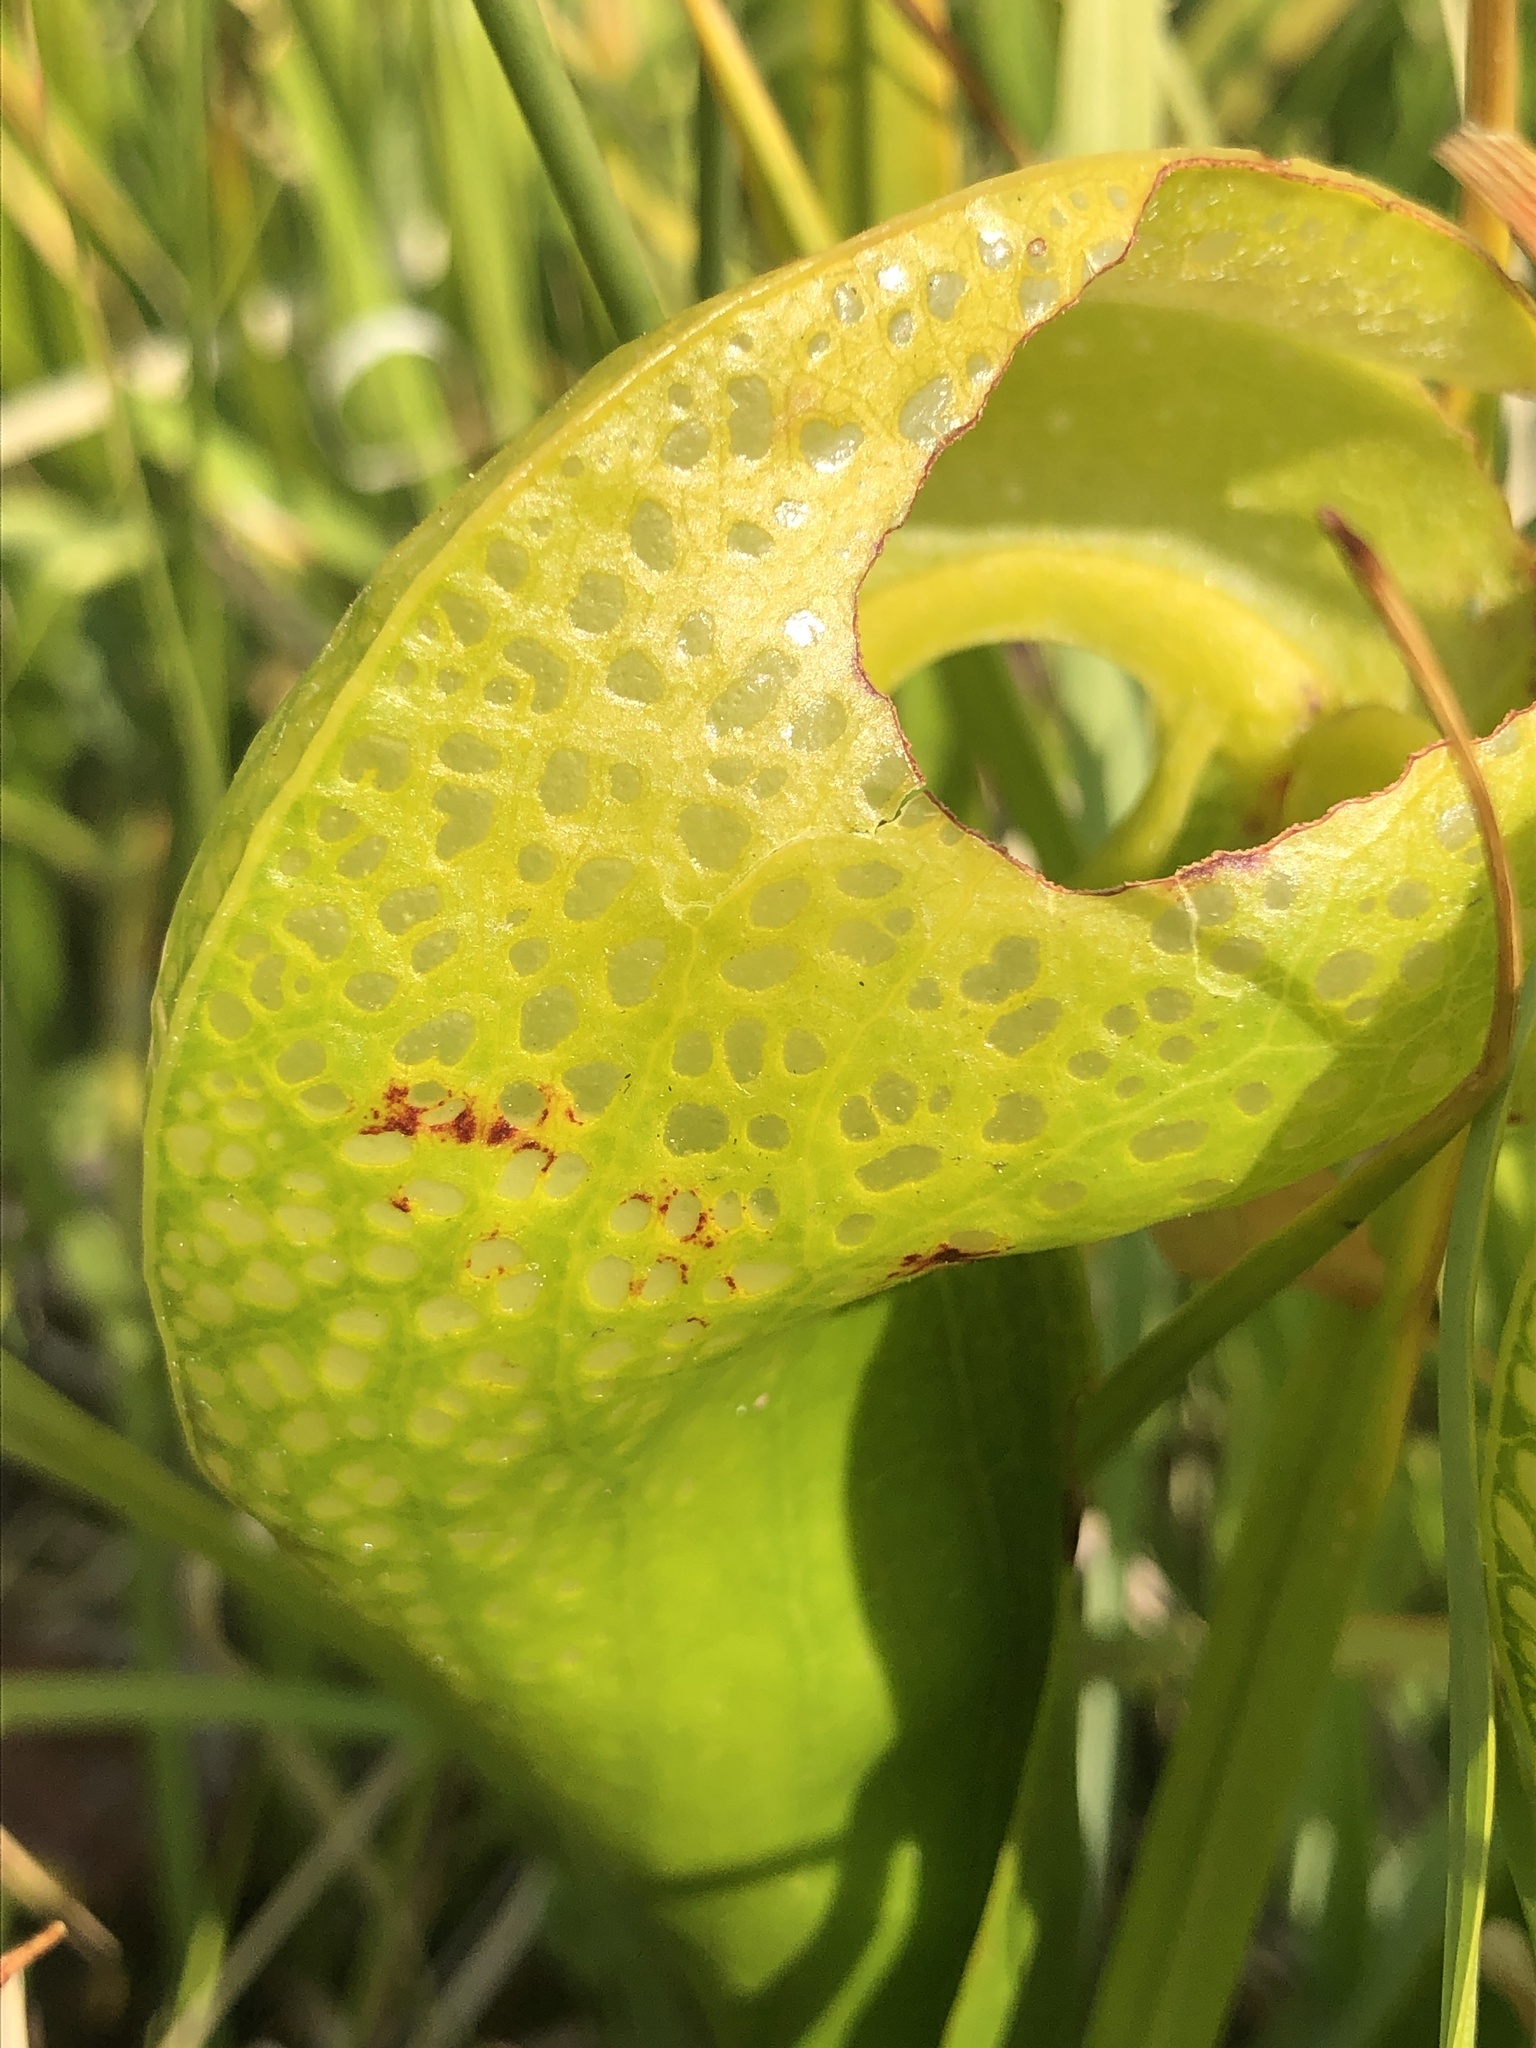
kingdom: Plantae
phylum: Tracheophyta
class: Magnoliopsida
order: Ericales
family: Sarraceniaceae
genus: Darlingtonia
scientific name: Darlingtonia californica
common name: California pitcher plant
